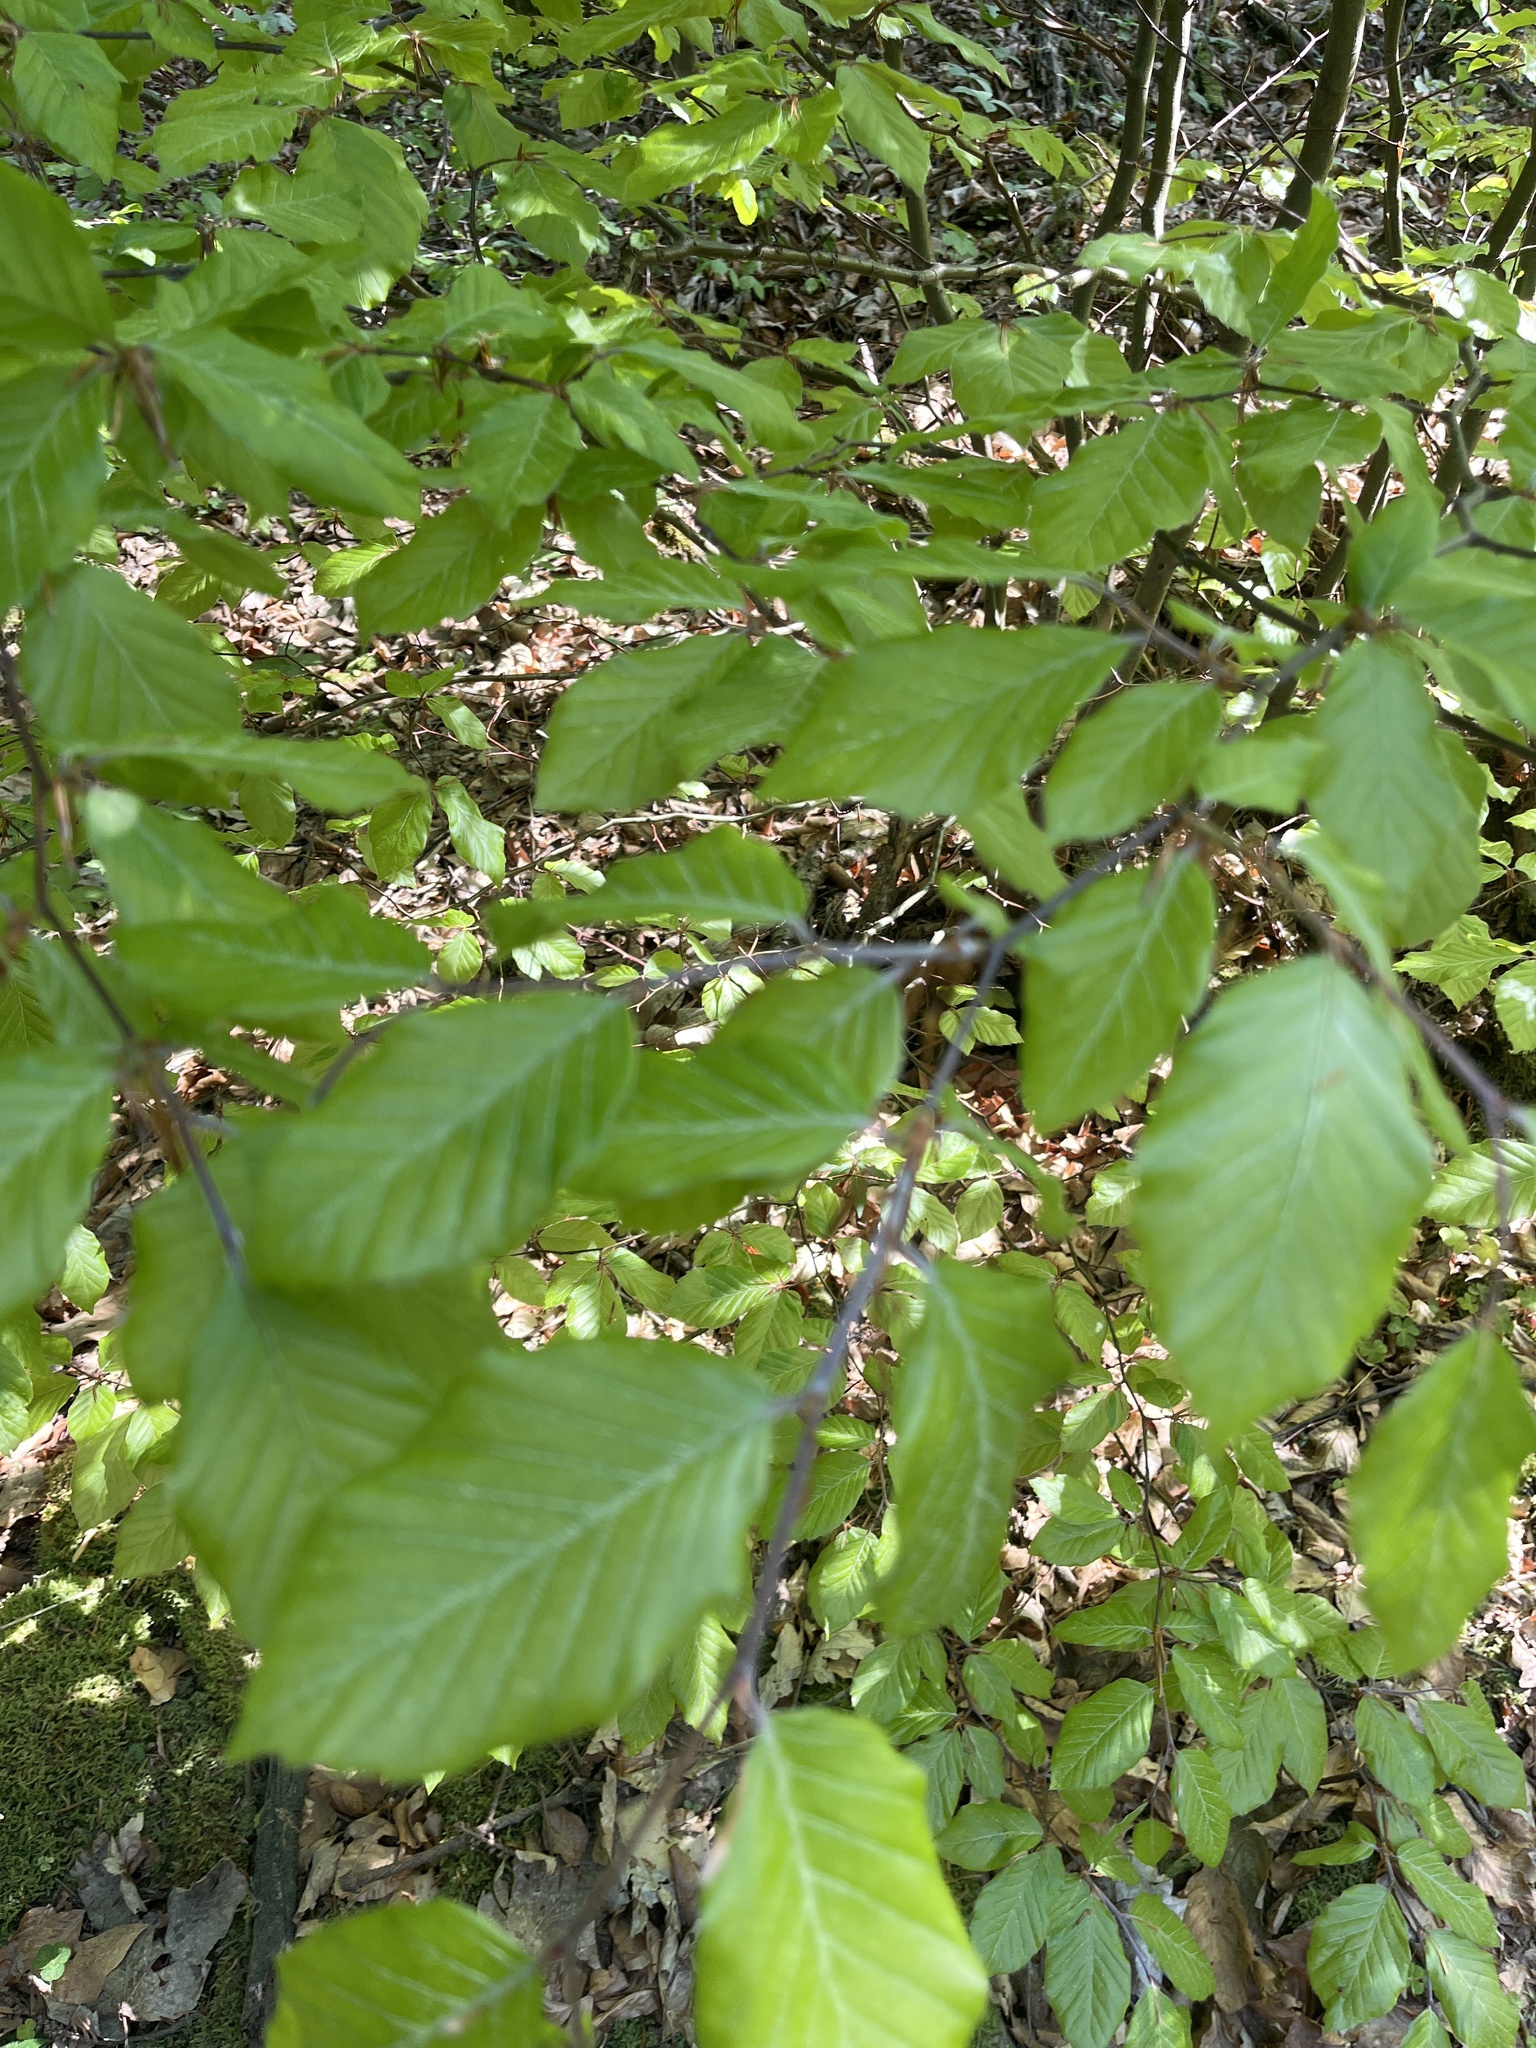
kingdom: Plantae
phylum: Tracheophyta
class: Magnoliopsida
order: Fagales
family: Fagaceae
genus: Fagus
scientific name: Fagus sylvatica
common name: Beech
